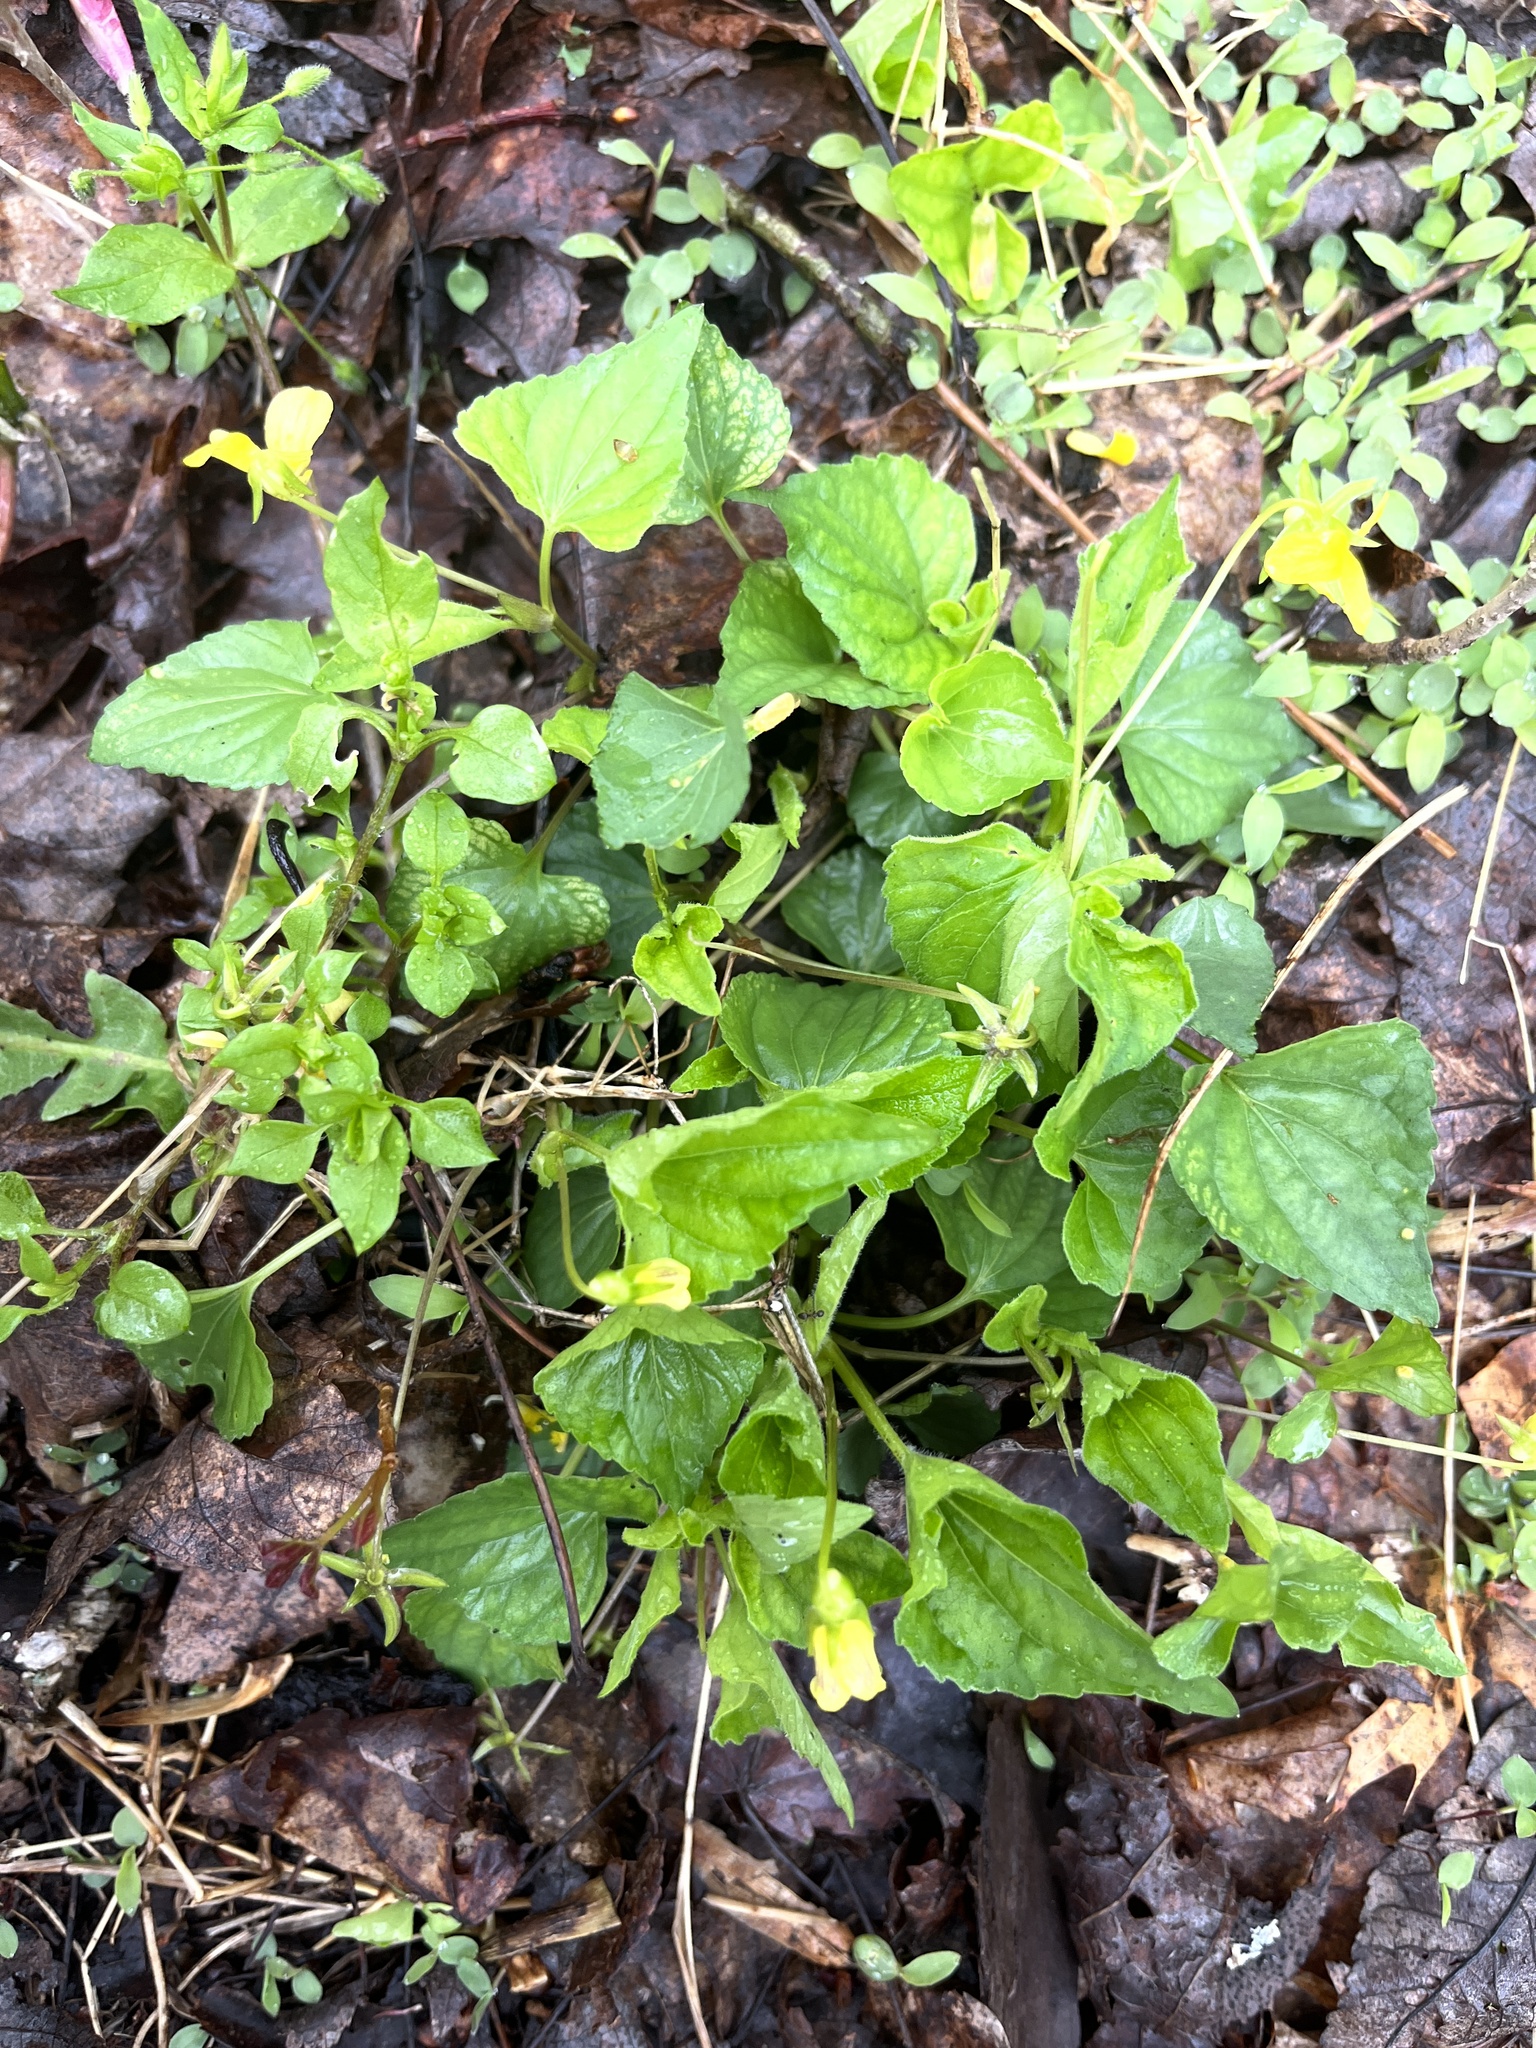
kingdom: Plantae
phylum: Tracheophyta
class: Magnoliopsida
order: Malpighiales
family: Violaceae
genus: Viola
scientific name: Viola eriocarpa
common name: Smooth yellow violet
